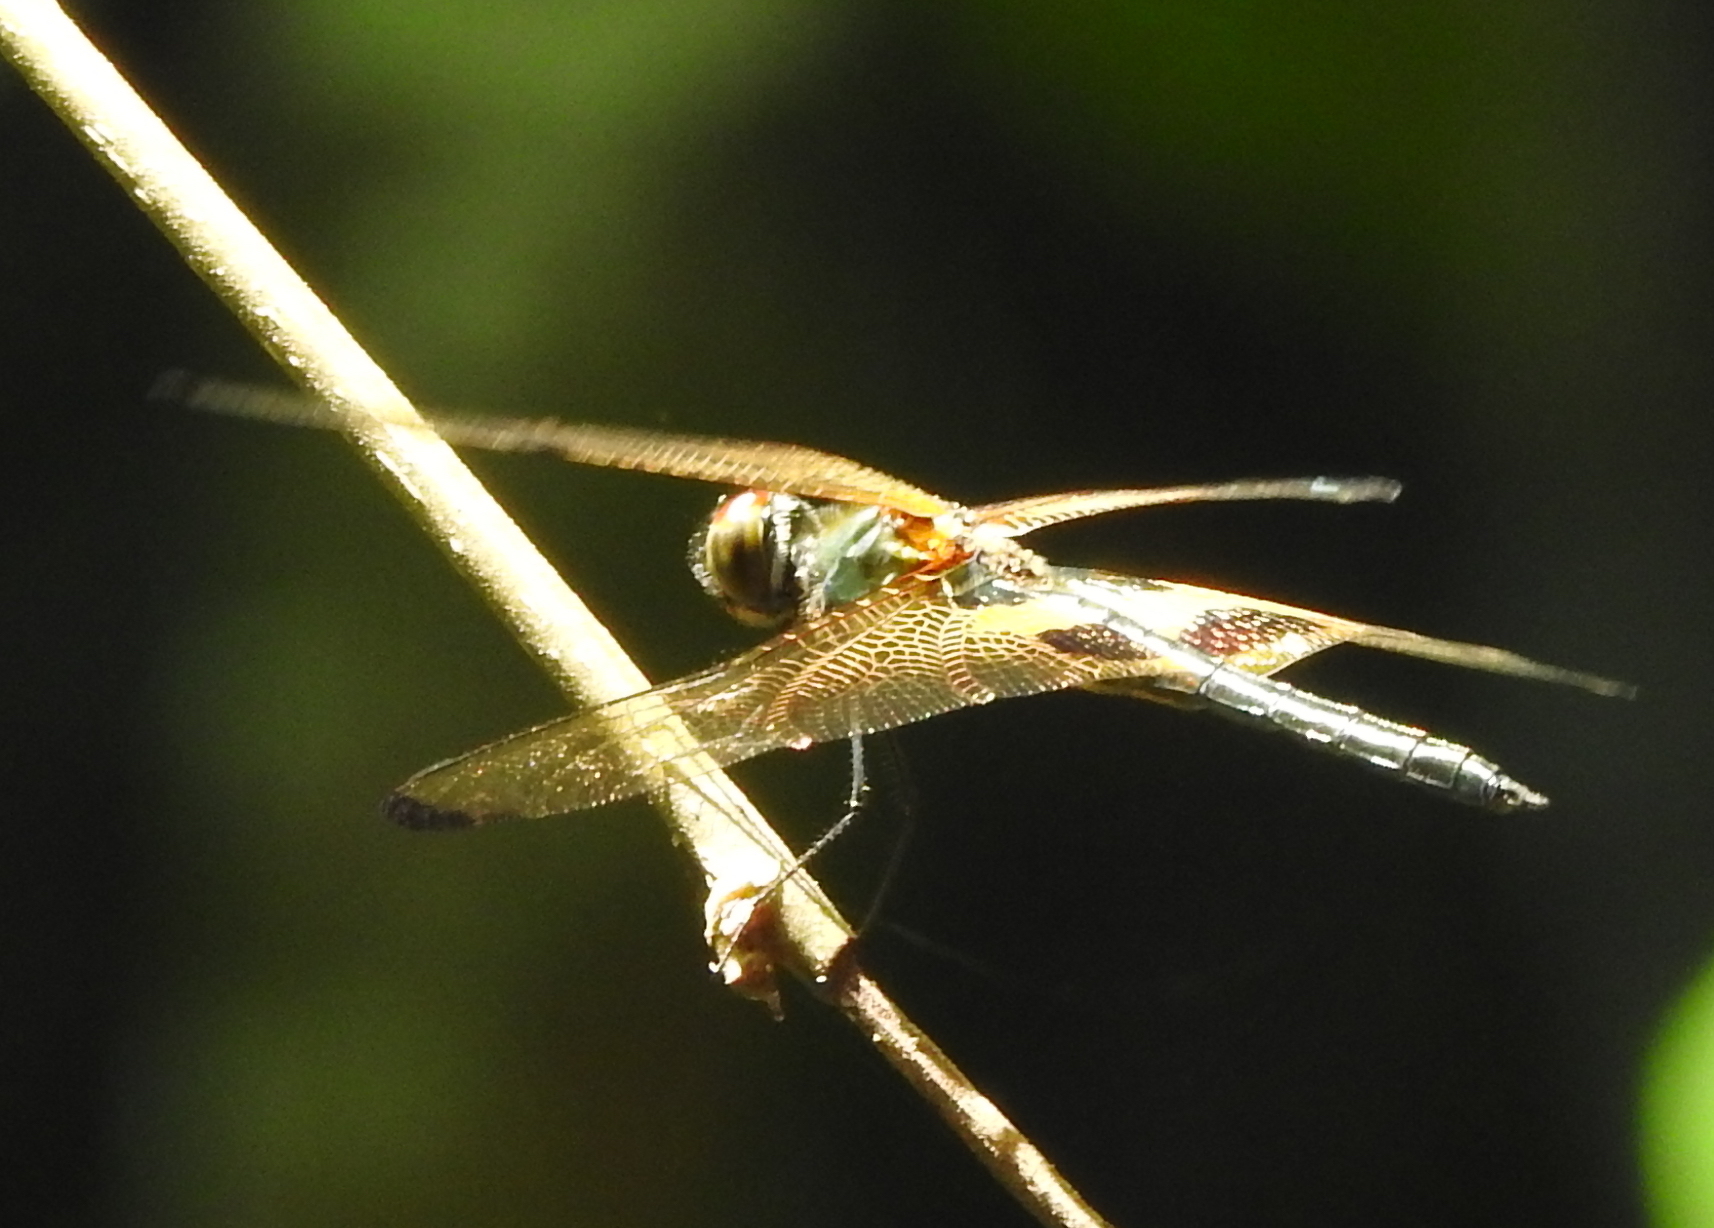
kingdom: Animalia
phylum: Arthropoda
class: Insecta
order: Odonata
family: Libellulidae
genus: Rhyothemis
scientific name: Rhyothemis phyllis
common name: Yellow-barred flutterer
